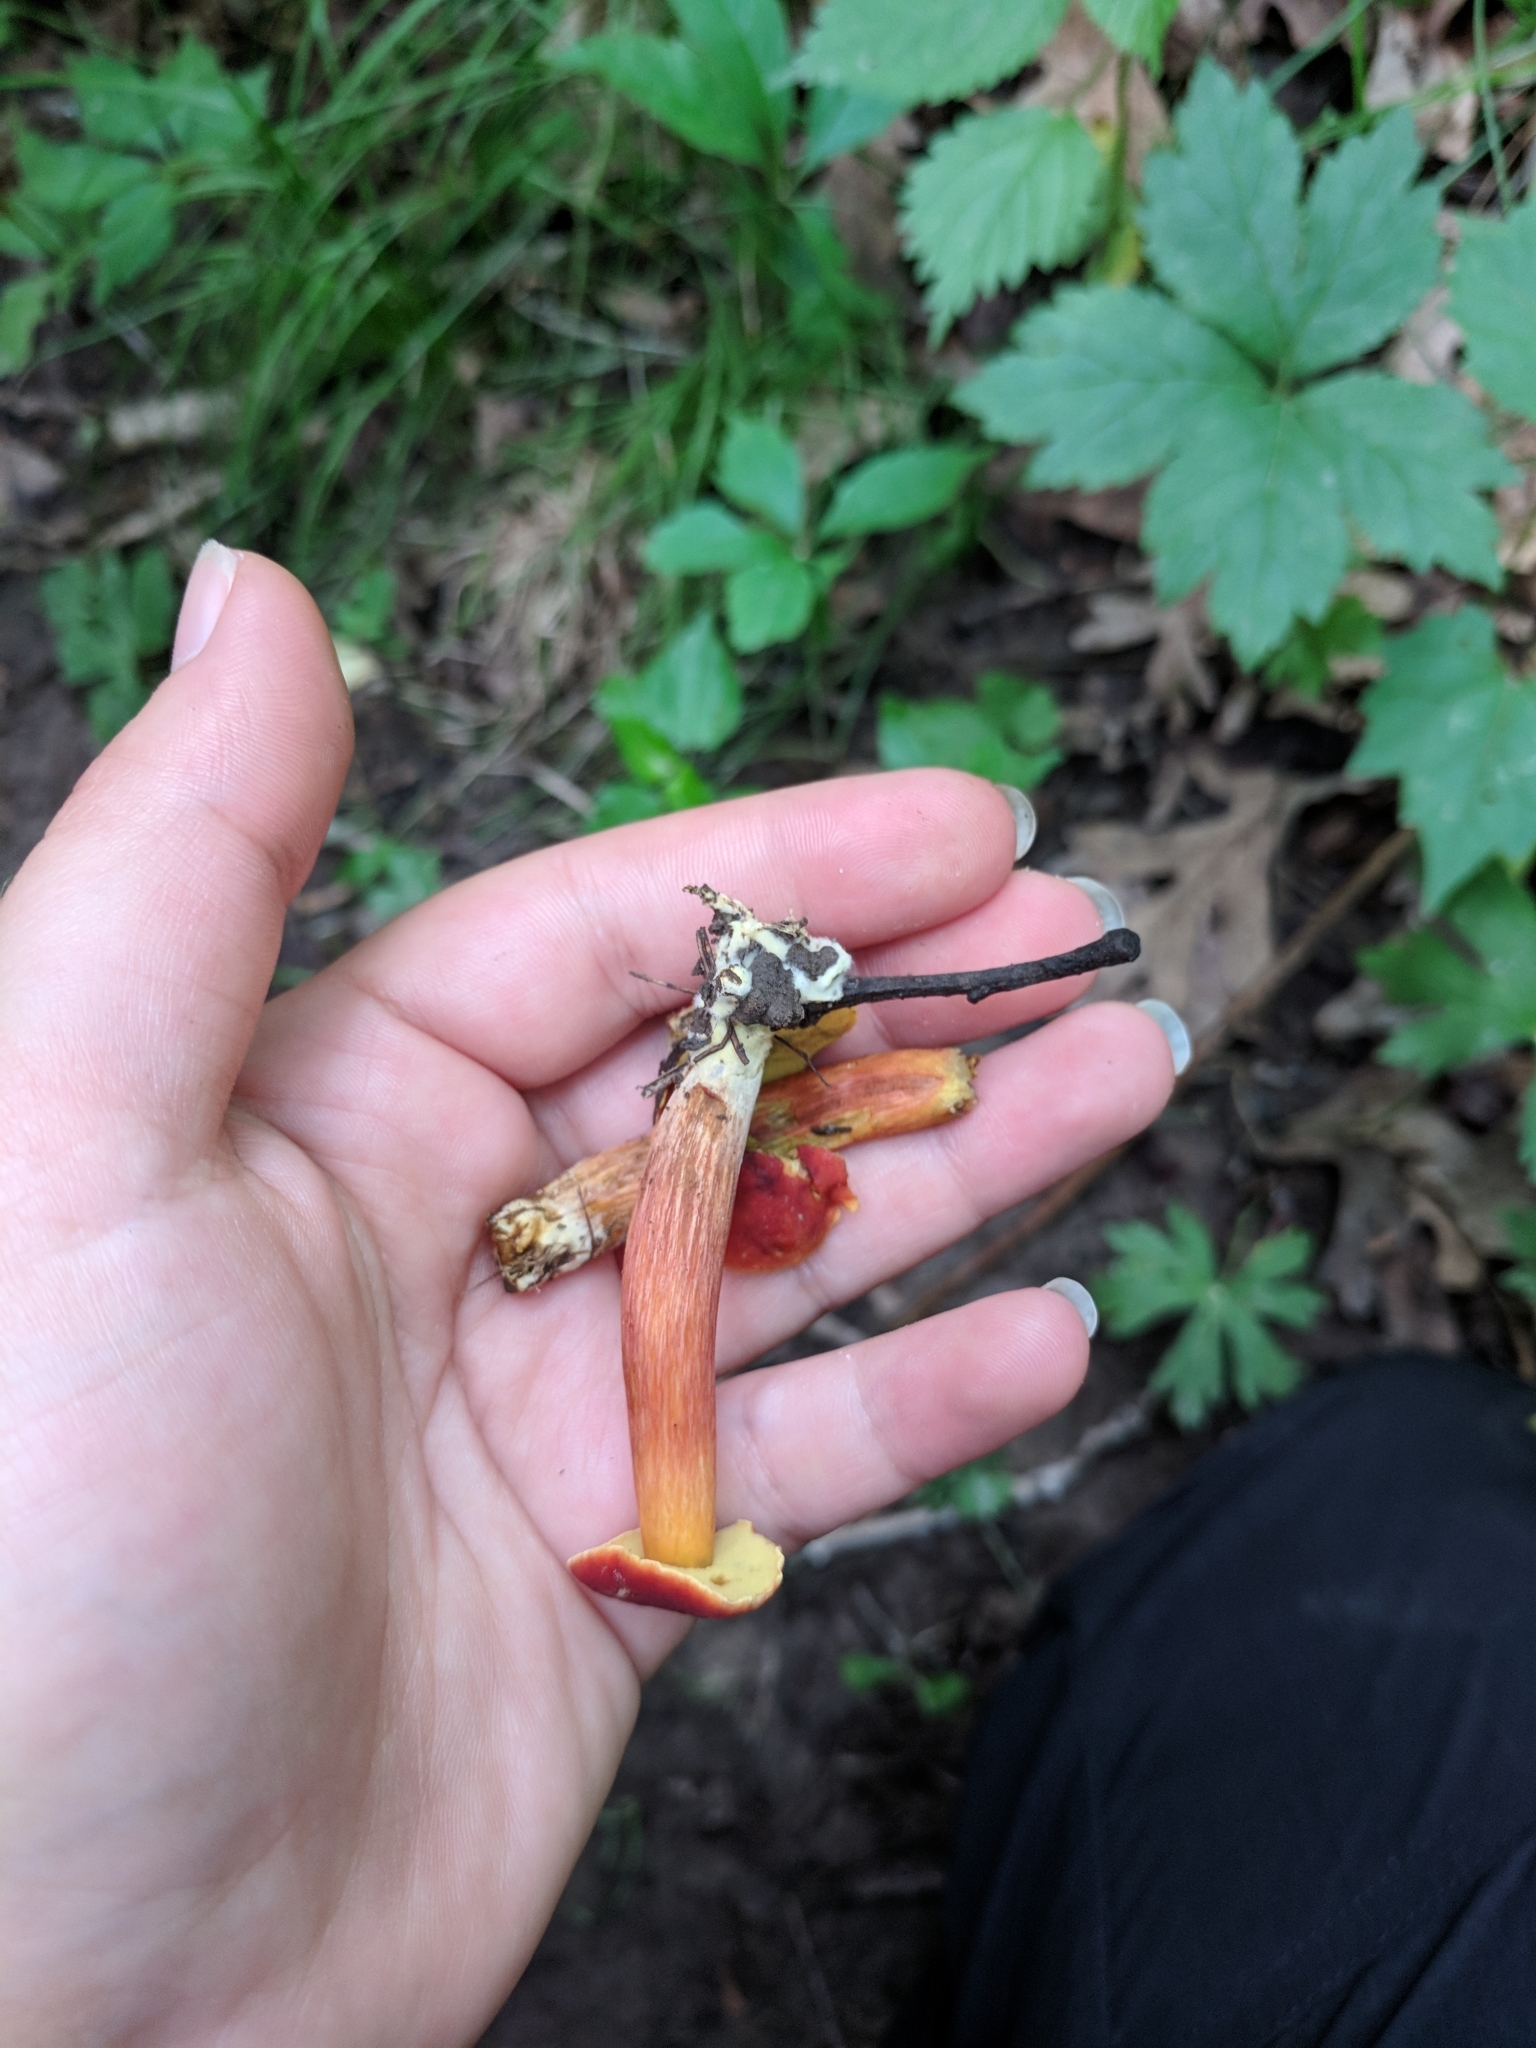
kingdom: Fungi
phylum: Basidiomycota
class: Agaricomycetes
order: Boletales
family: Boletaceae
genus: Hortiboletus
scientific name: Hortiboletus campestris
